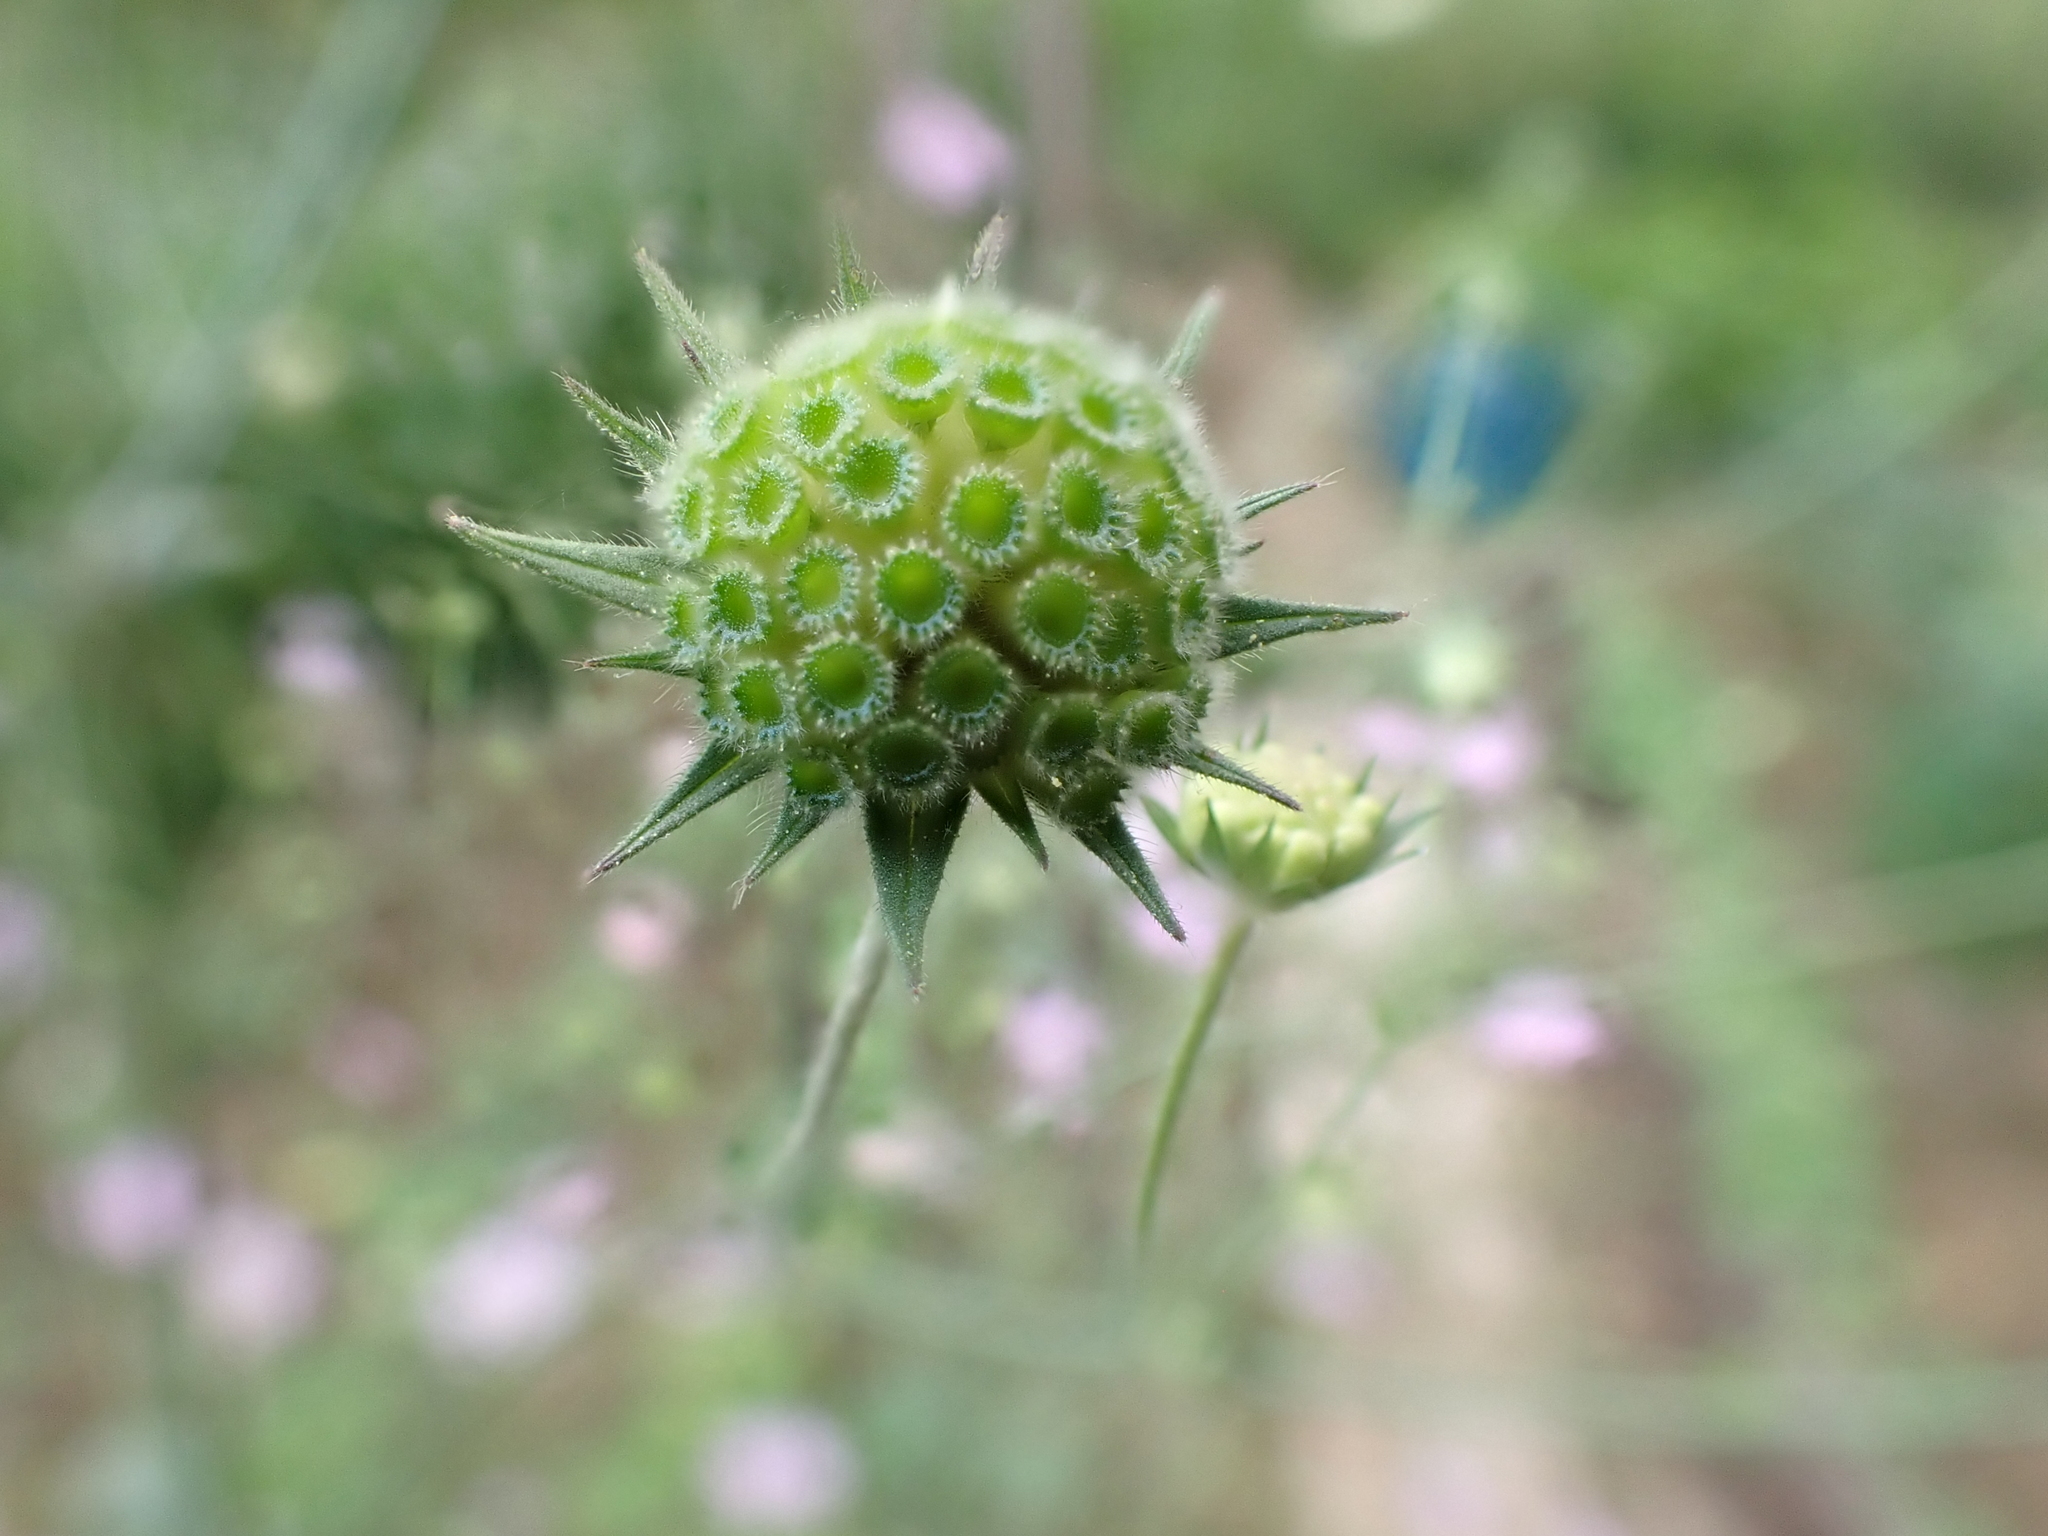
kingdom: Plantae
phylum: Tracheophyta
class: Magnoliopsida
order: Dipsacales
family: Caprifoliaceae
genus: Knautia
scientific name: Knautia integrifolia
